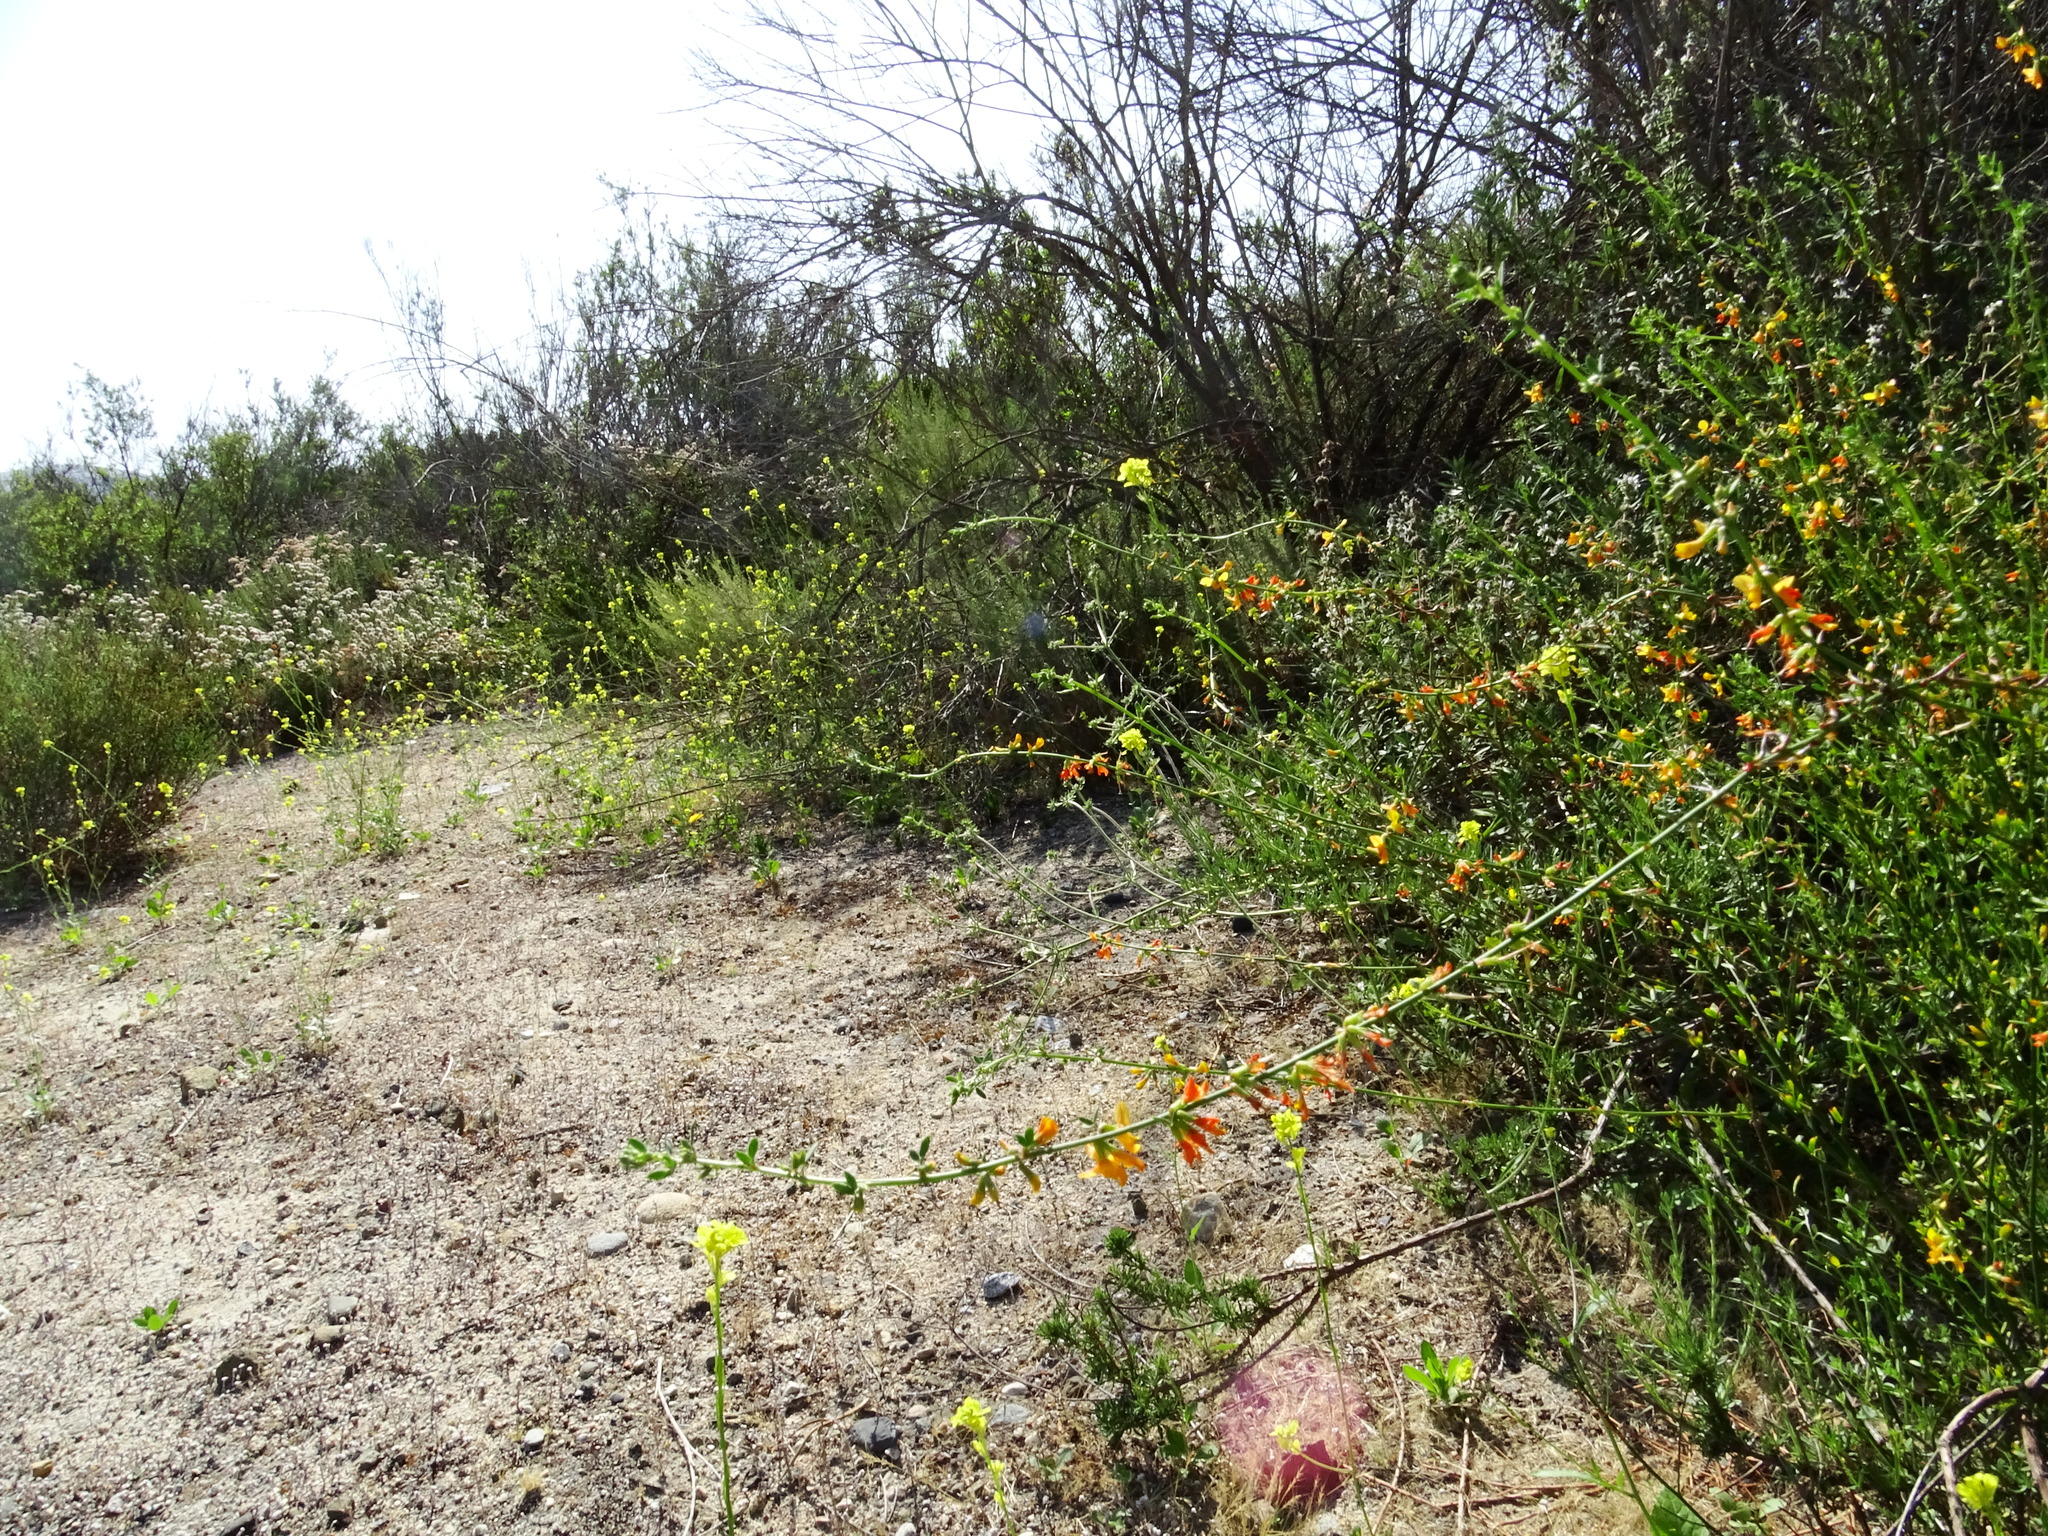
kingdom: Plantae
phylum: Tracheophyta
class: Magnoliopsida
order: Fabales
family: Fabaceae
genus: Acmispon
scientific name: Acmispon glaber
